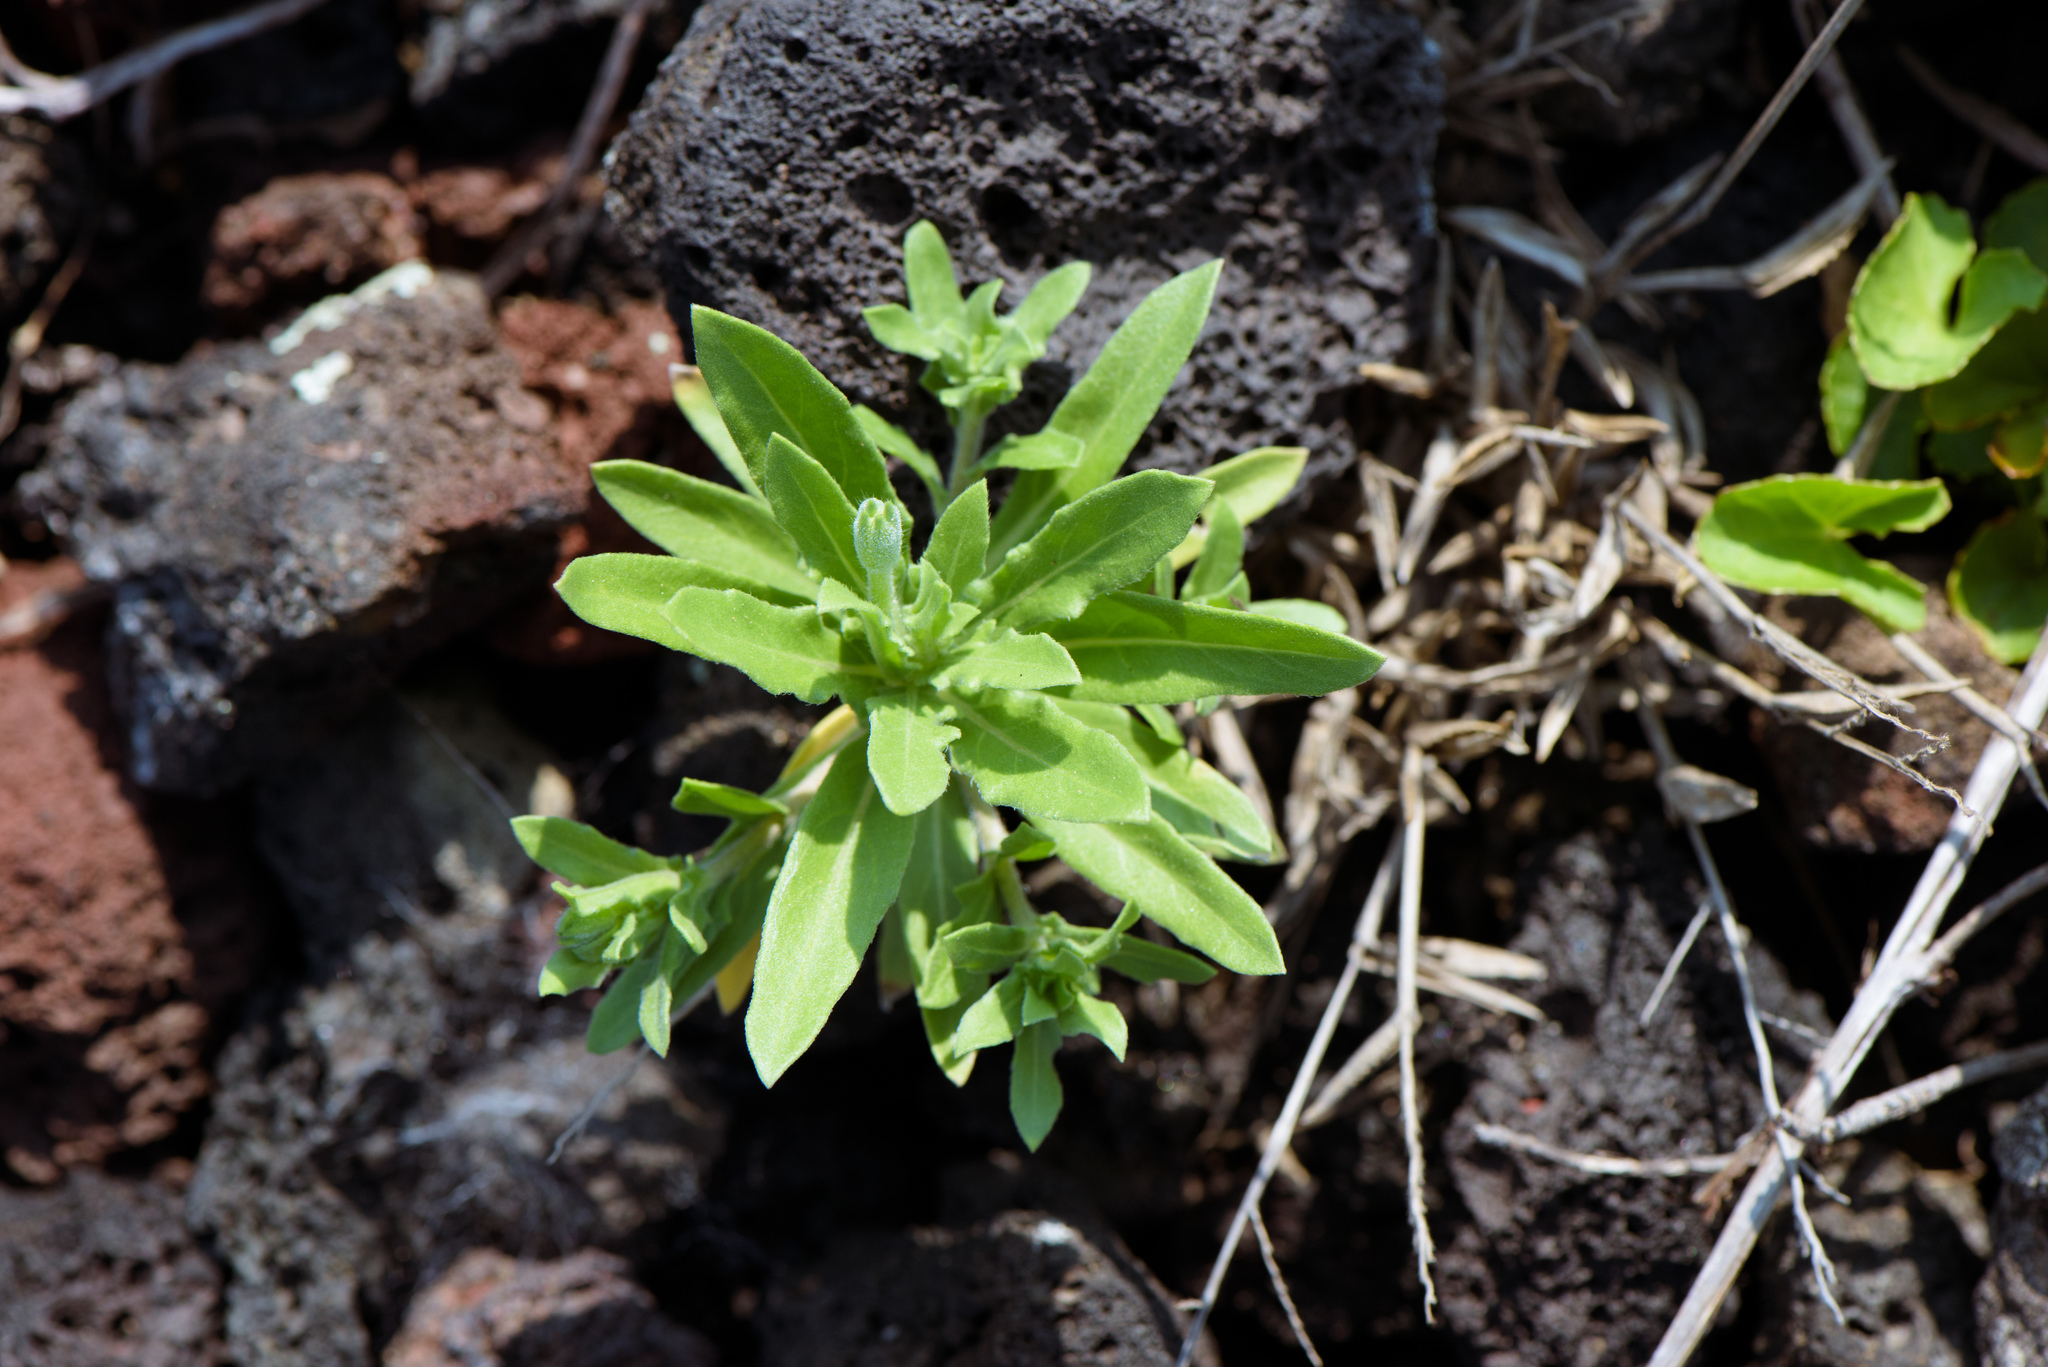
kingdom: Plantae
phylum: Tracheophyta
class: Magnoliopsida
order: Myrtales
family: Onagraceae
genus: Oenothera
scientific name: Oenothera laciniata
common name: Cut-leaved evening-primrose
